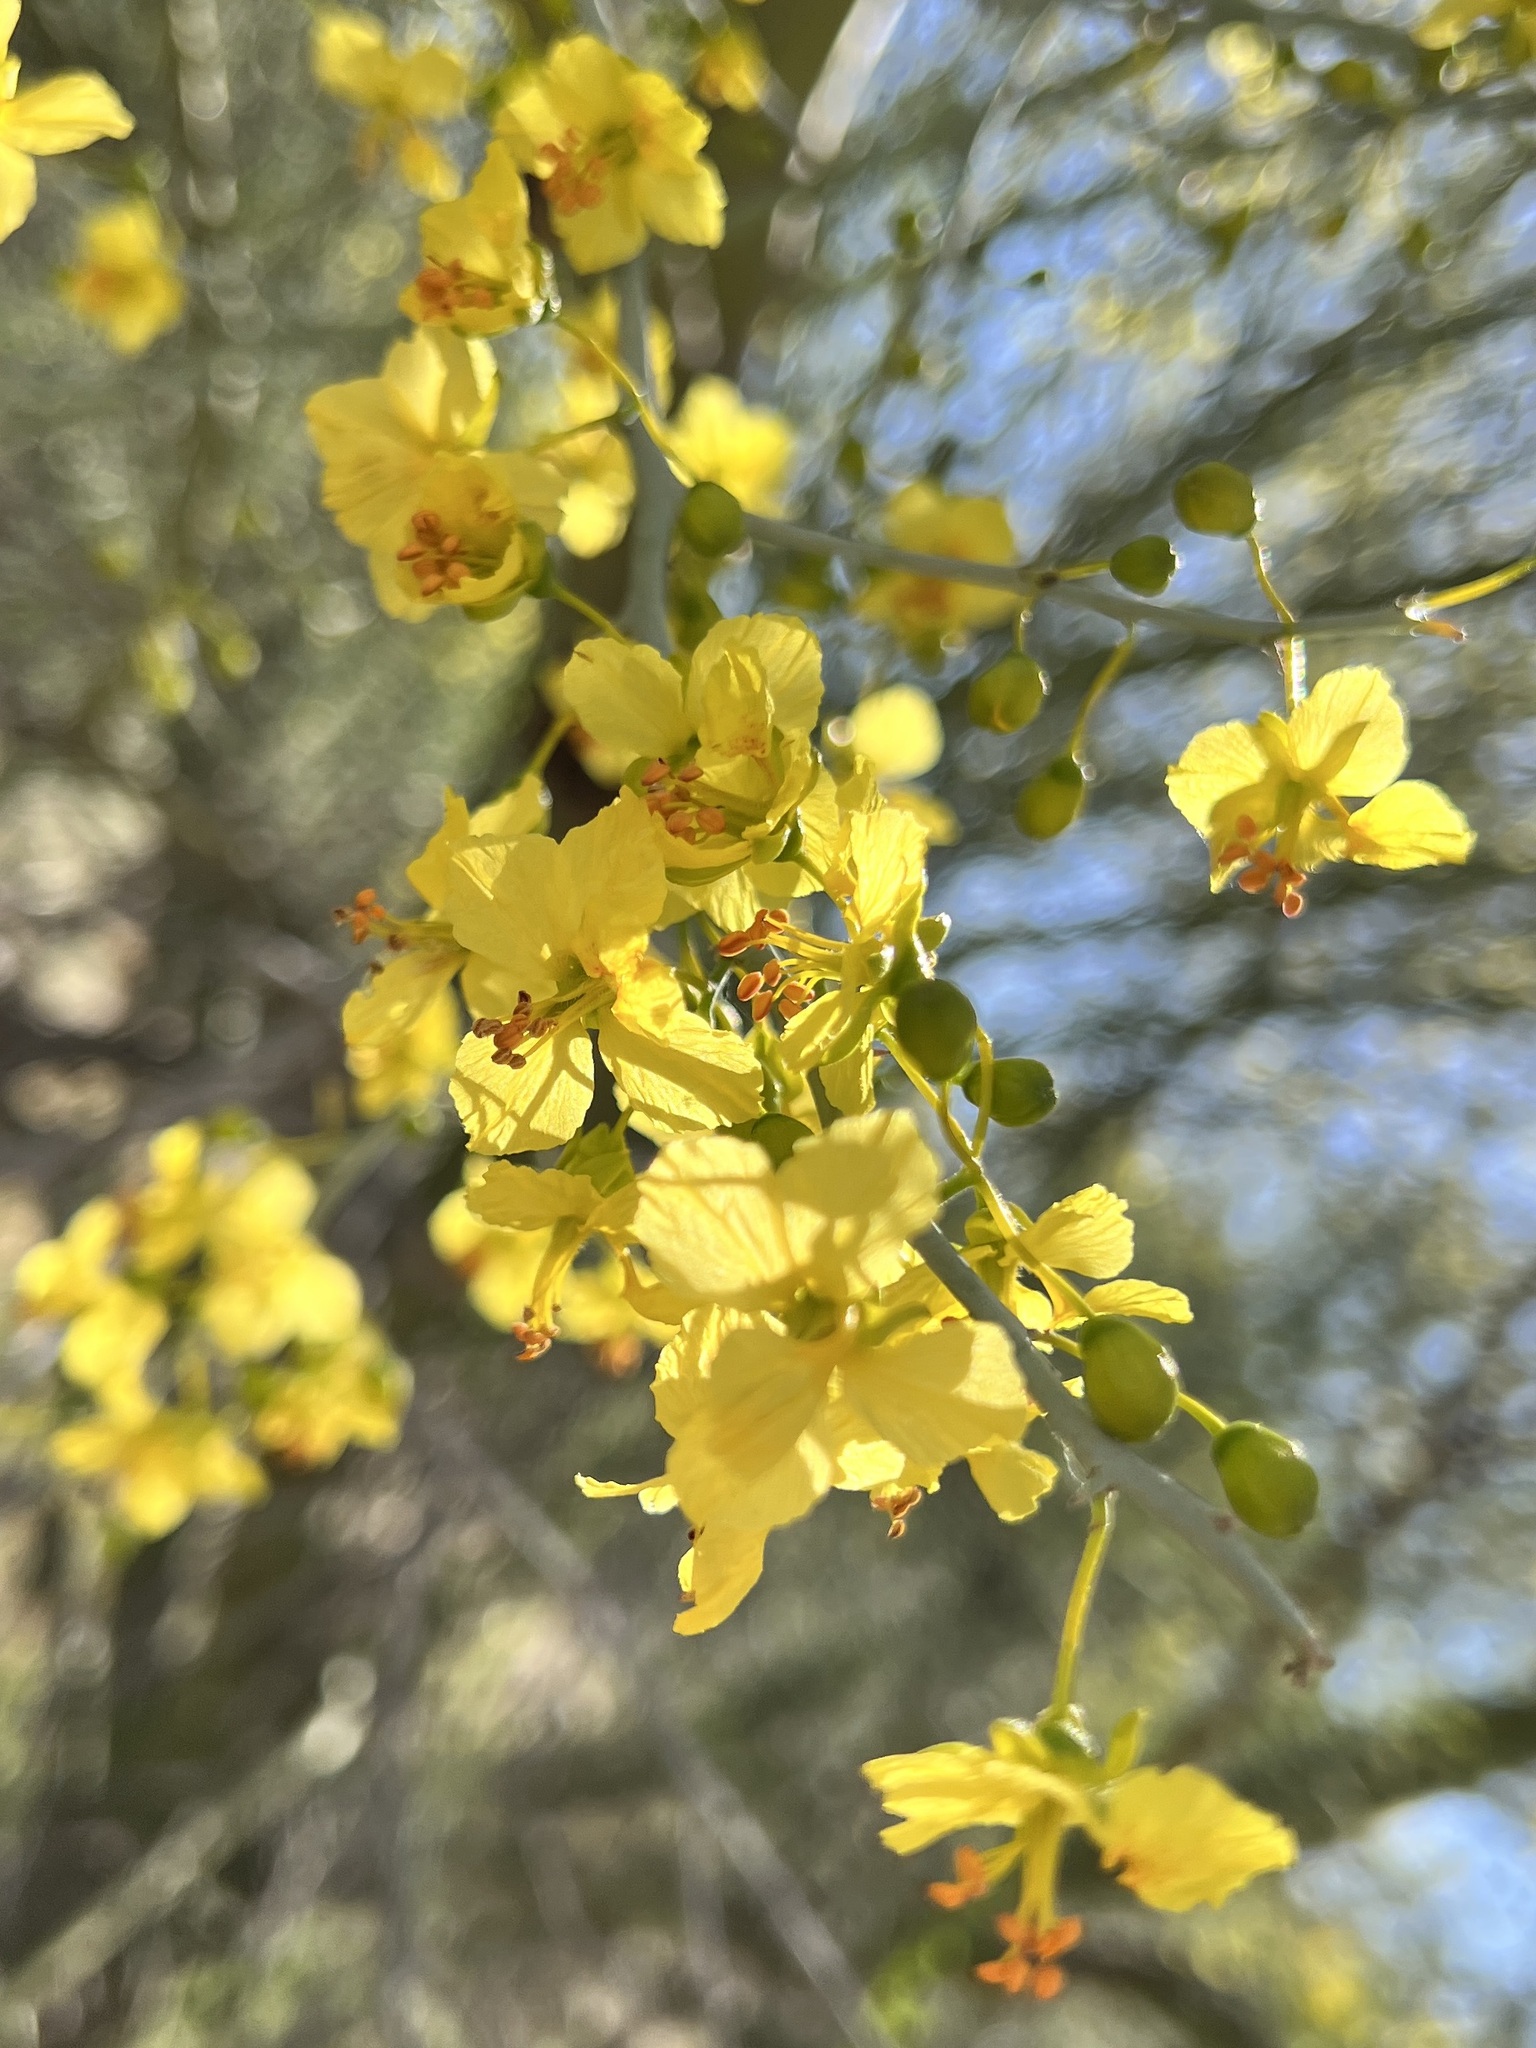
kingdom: Plantae
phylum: Tracheophyta
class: Magnoliopsida
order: Fabales
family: Fabaceae
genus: Parkinsonia
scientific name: Parkinsonia florida
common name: Blue paloverde
